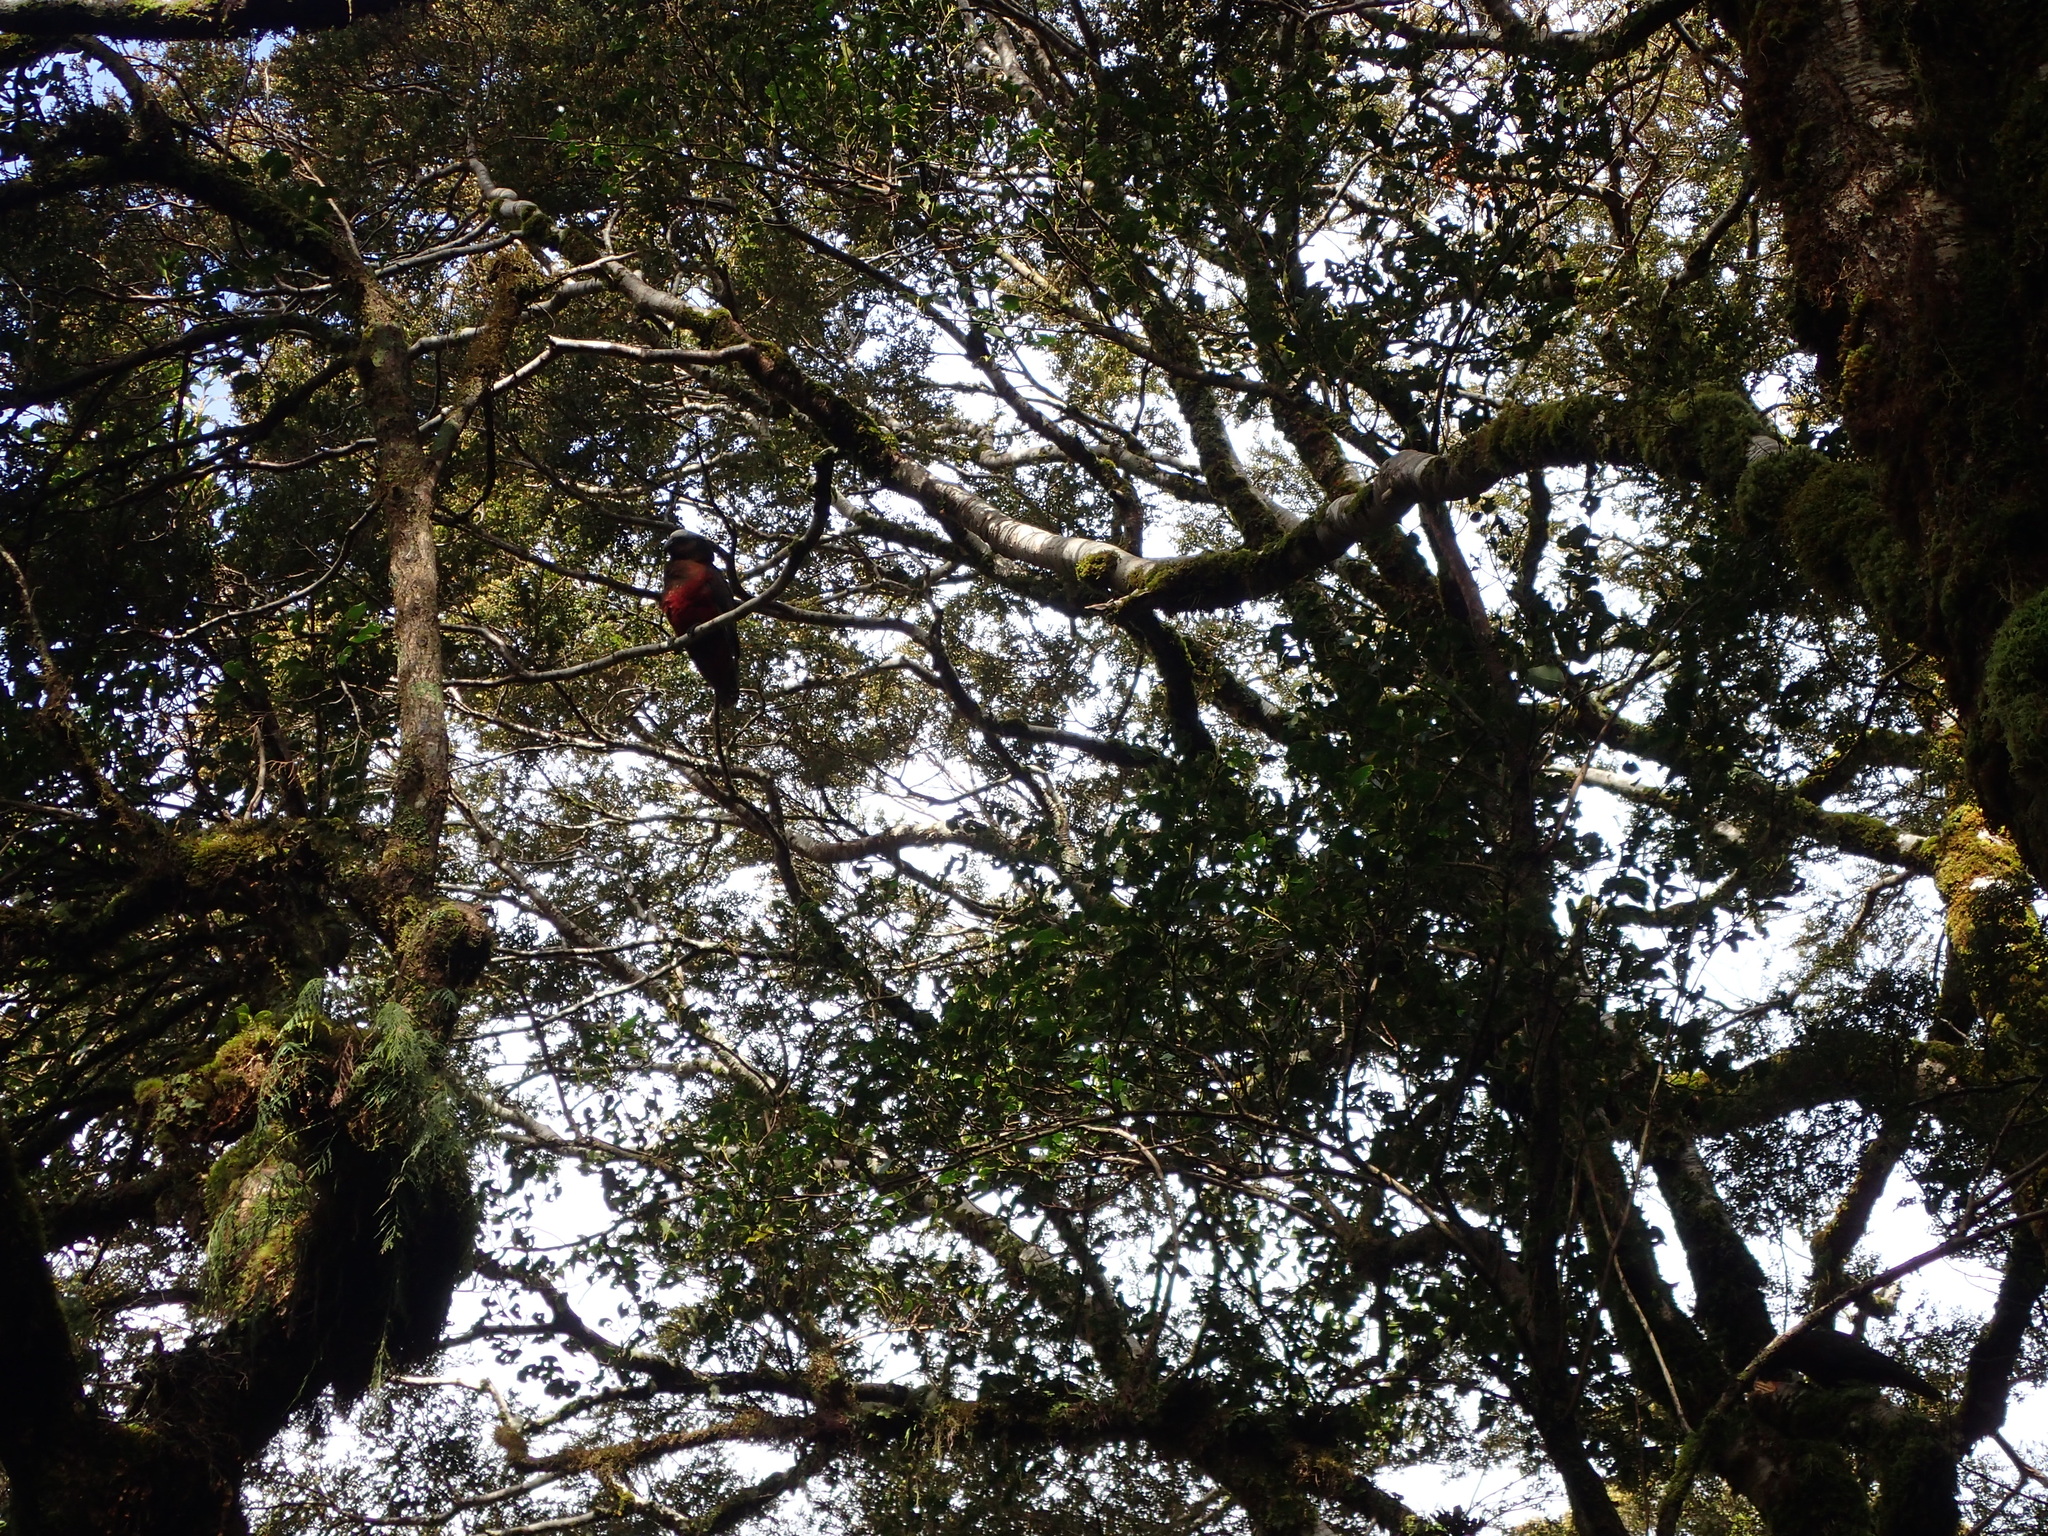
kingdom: Animalia
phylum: Chordata
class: Aves
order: Psittaciformes
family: Psittacidae
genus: Nestor
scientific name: Nestor meridionalis
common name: New zealand kaka
